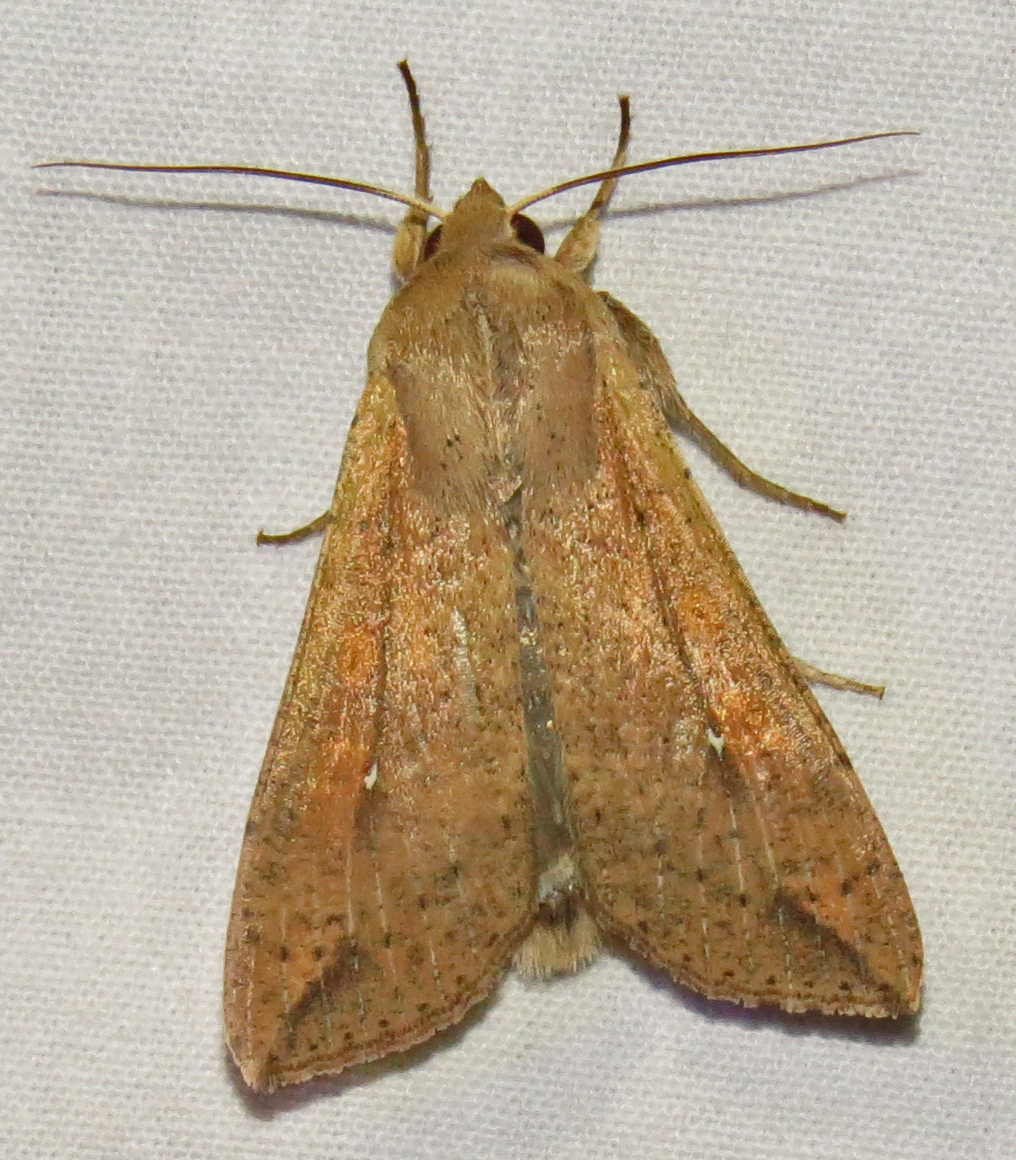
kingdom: Animalia
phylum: Arthropoda
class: Insecta
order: Lepidoptera
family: Noctuidae
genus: Mythimna
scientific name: Mythimna unipuncta
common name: White-speck
